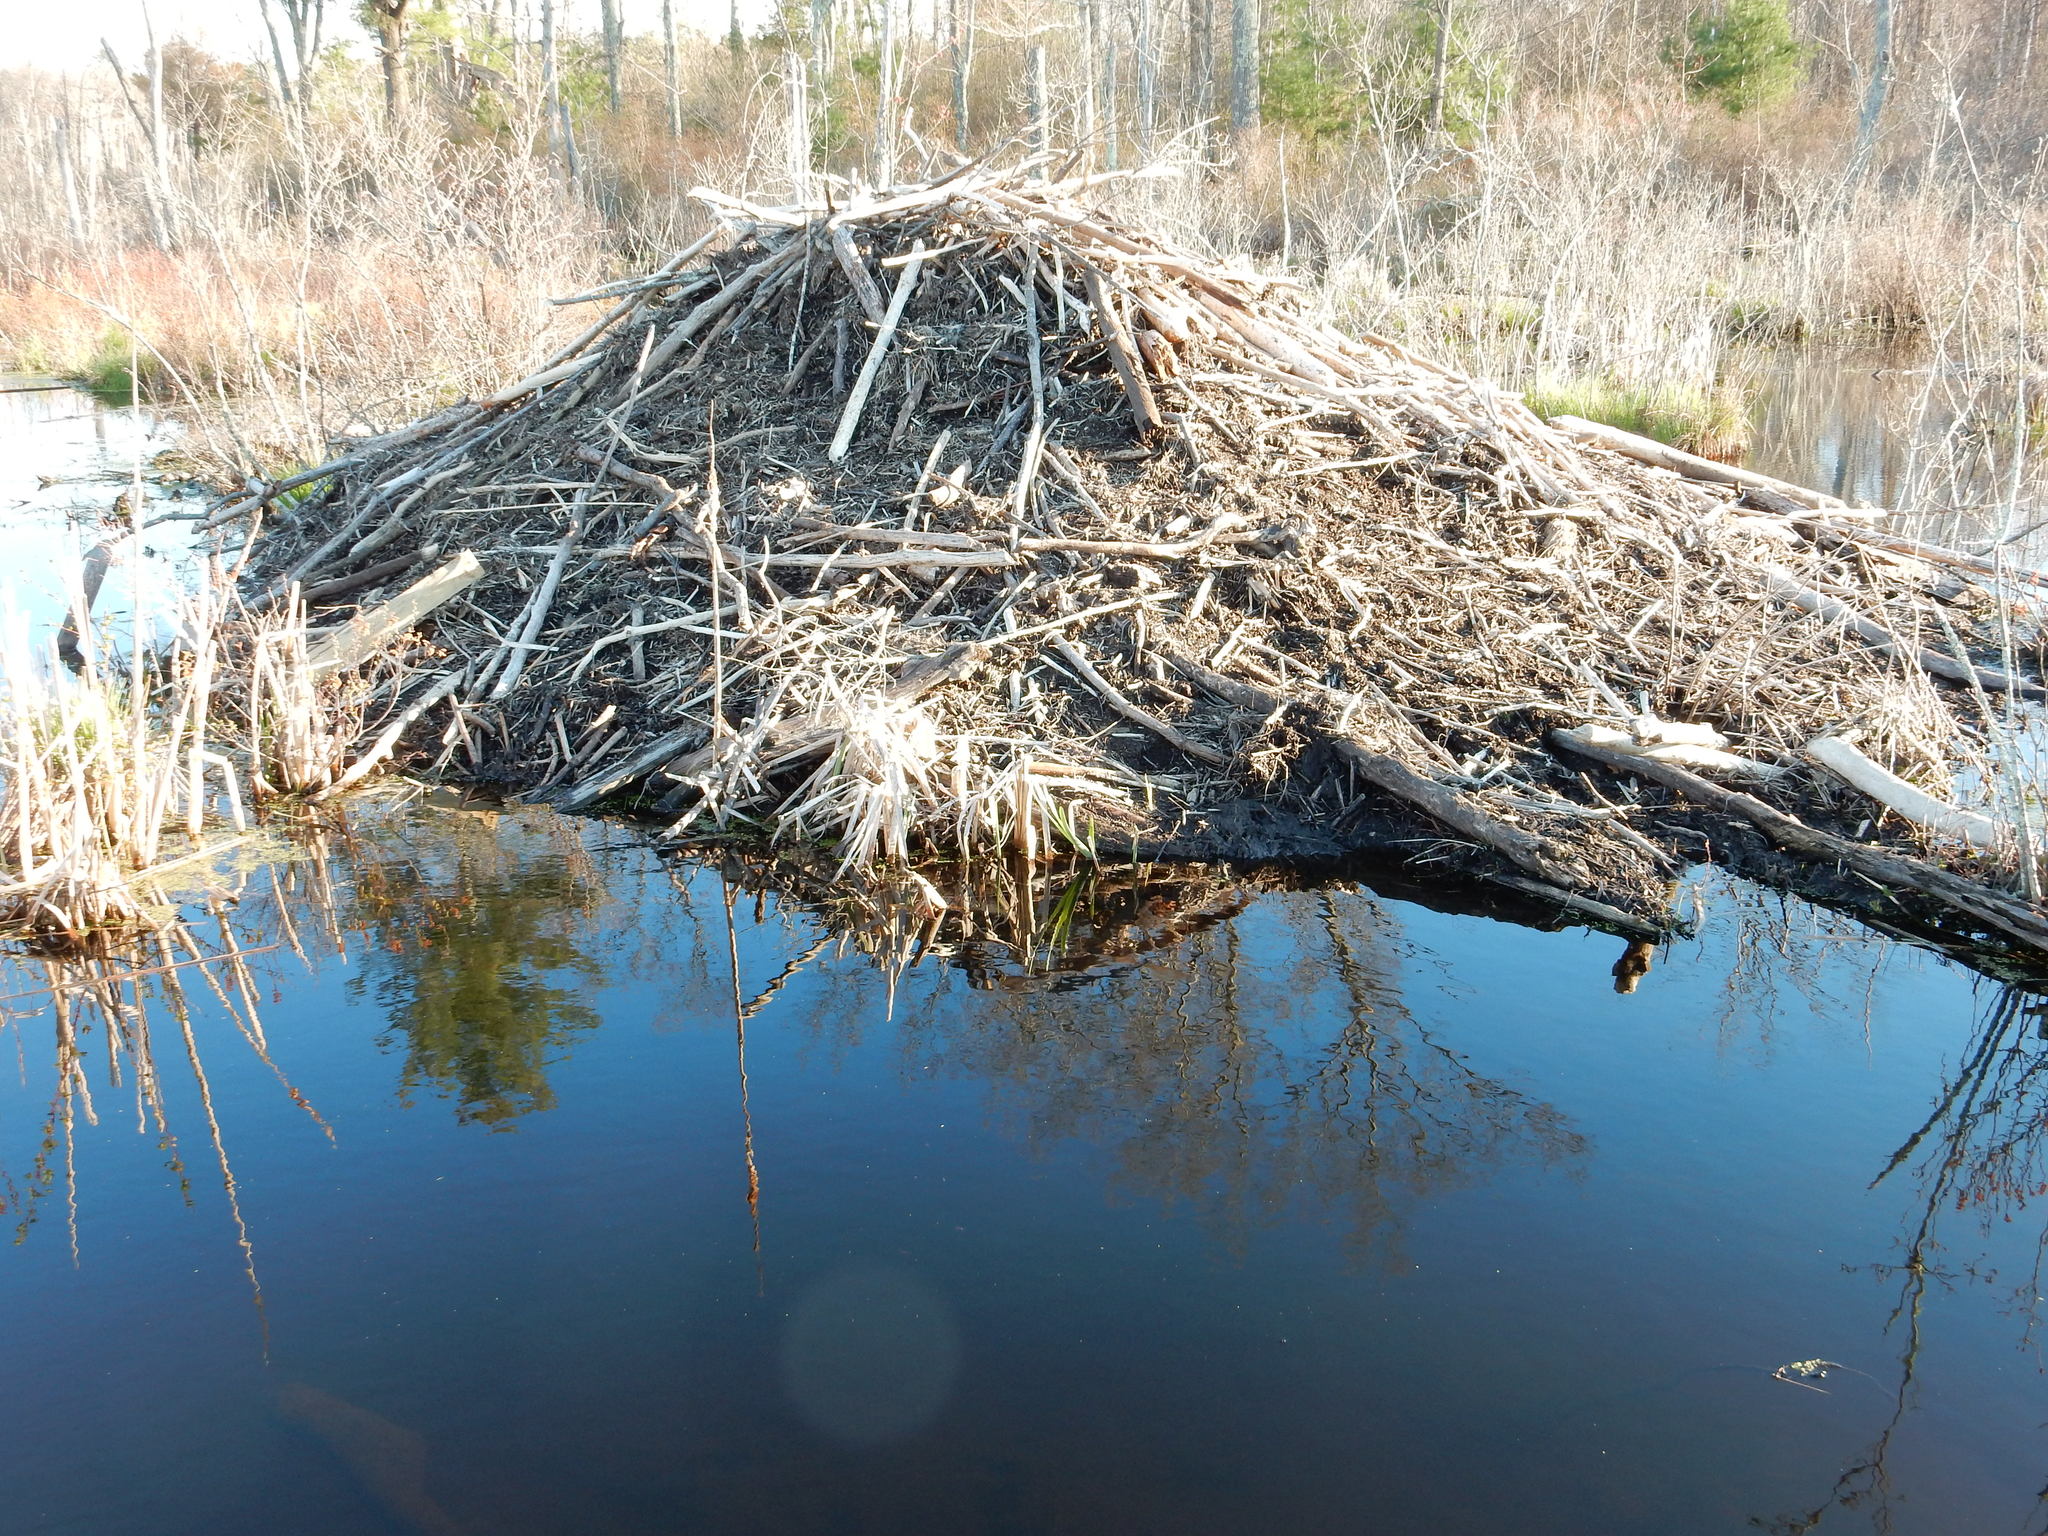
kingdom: Animalia
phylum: Chordata
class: Mammalia
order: Rodentia
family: Castoridae
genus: Castor
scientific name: Castor canadensis
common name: American beaver
